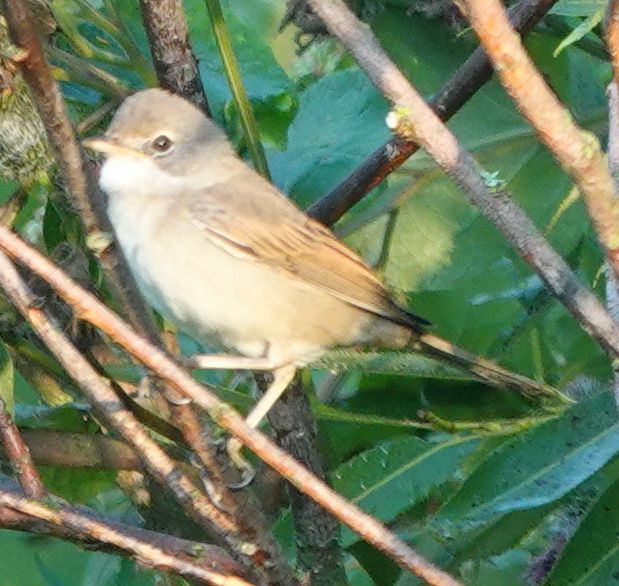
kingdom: Animalia
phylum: Chordata
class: Aves
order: Passeriformes
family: Sylviidae
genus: Sylvia
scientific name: Sylvia communis
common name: Common whitethroat
